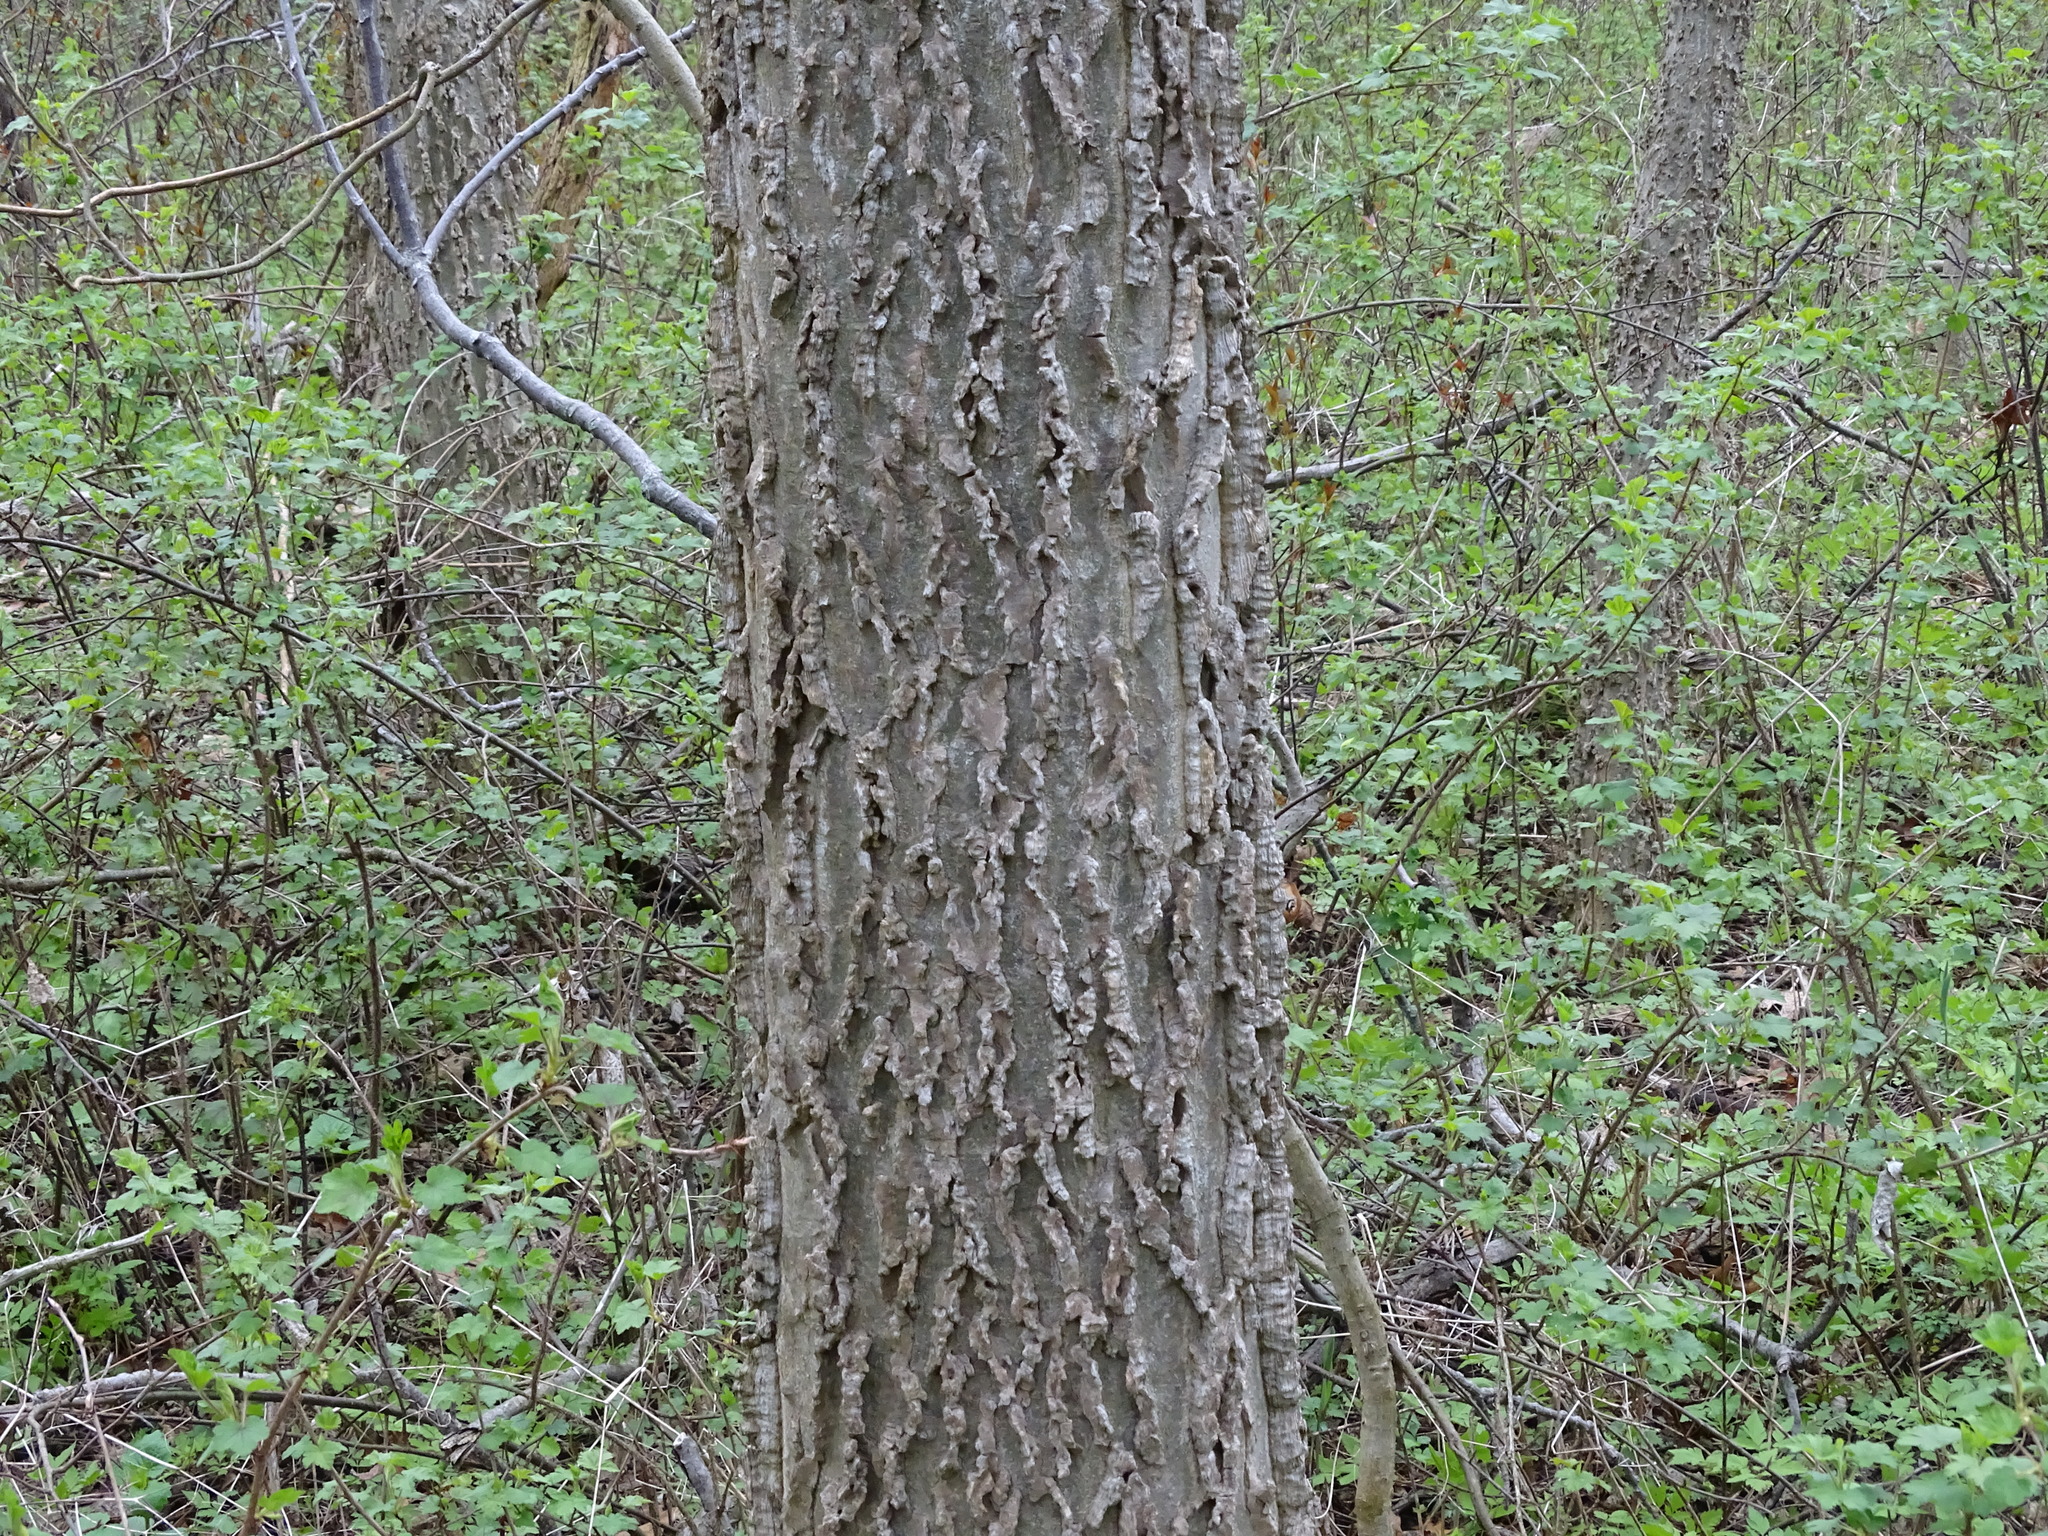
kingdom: Plantae
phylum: Tracheophyta
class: Magnoliopsida
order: Rosales
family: Cannabaceae
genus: Celtis
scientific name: Celtis occidentalis
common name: Common hackberry
